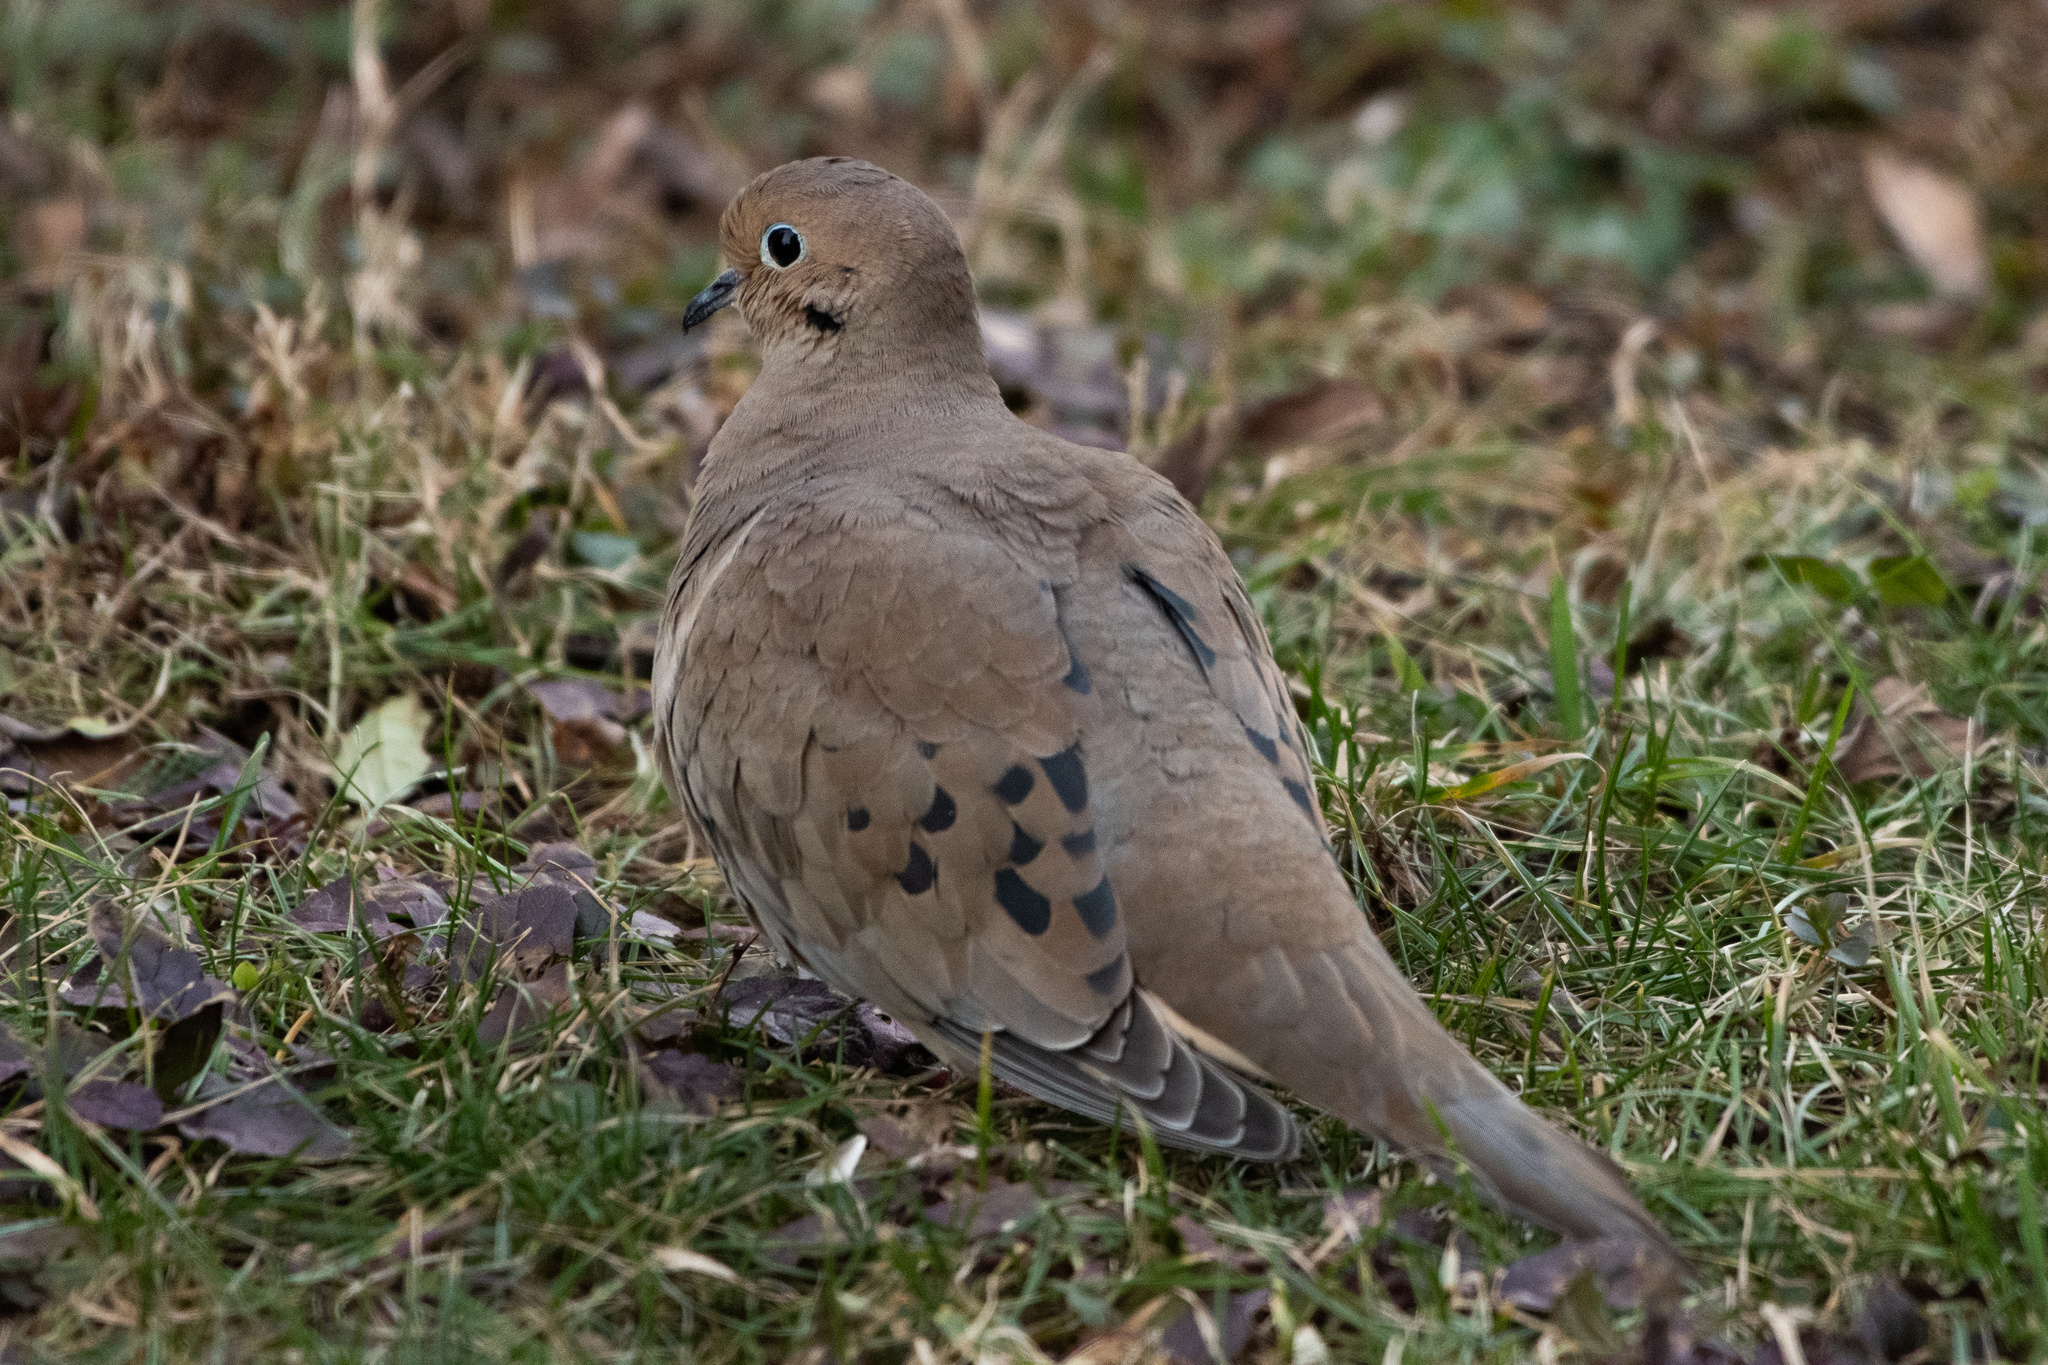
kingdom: Animalia
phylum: Chordata
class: Aves
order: Columbiformes
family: Columbidae
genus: Zenaida
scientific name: Zenaida macroura
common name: Mourning dove
